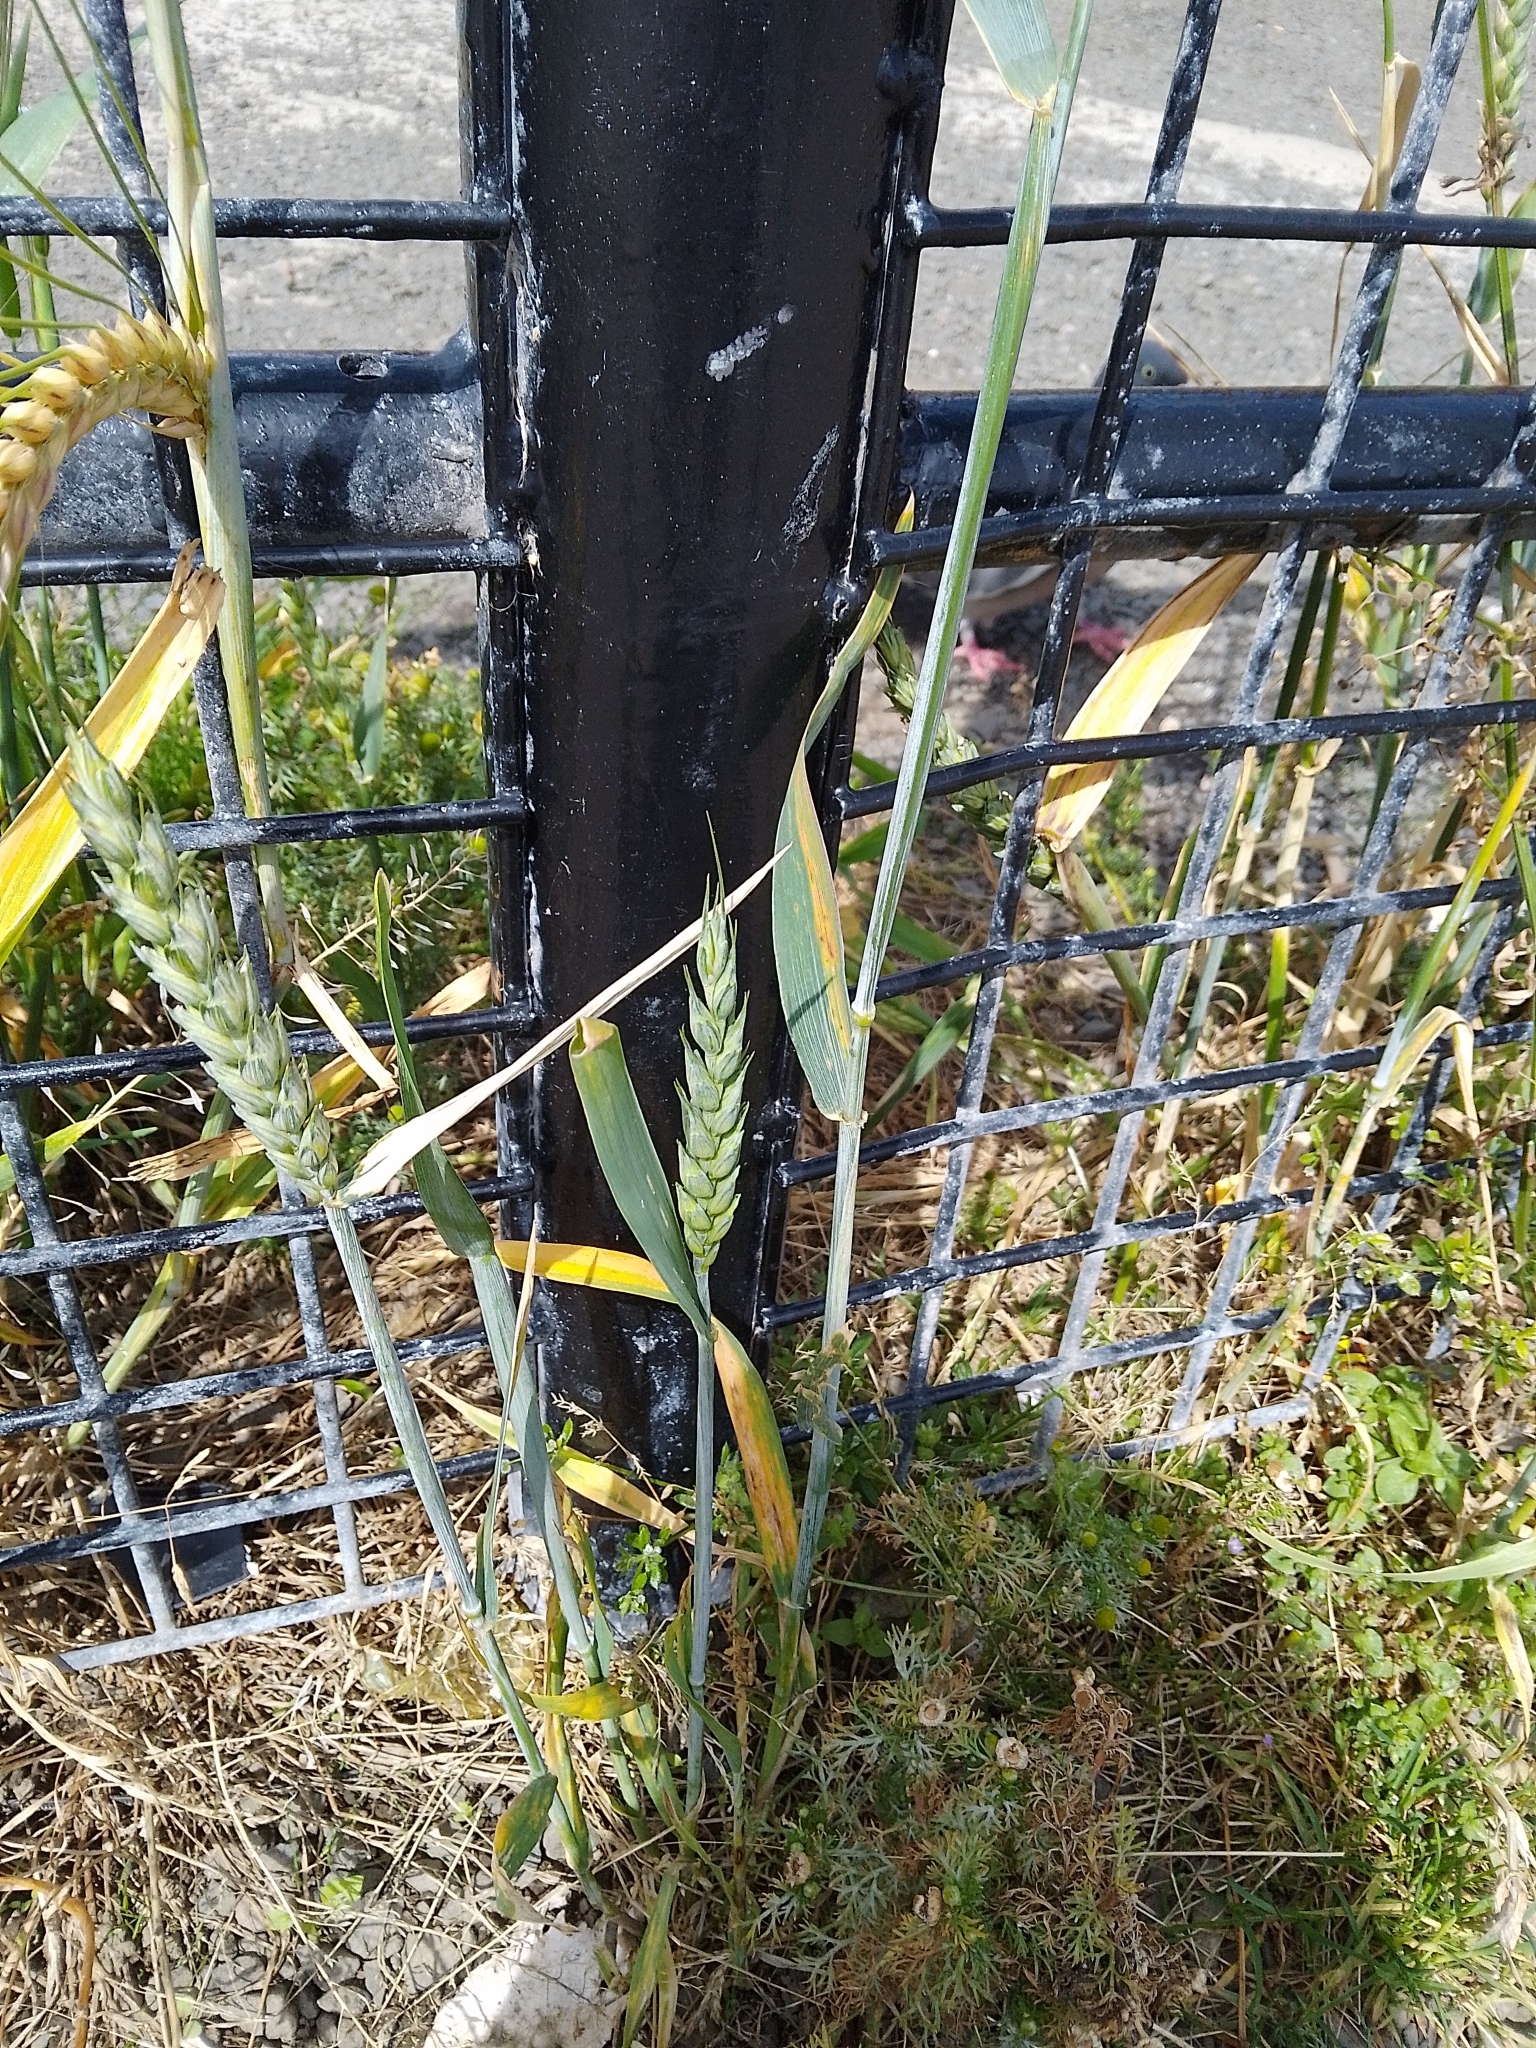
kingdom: Plantae
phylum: Tracheophyta
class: Liliopsida
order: Poales
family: Poaceae
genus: Triticum
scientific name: Triticum aestivum
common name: Common wheat
